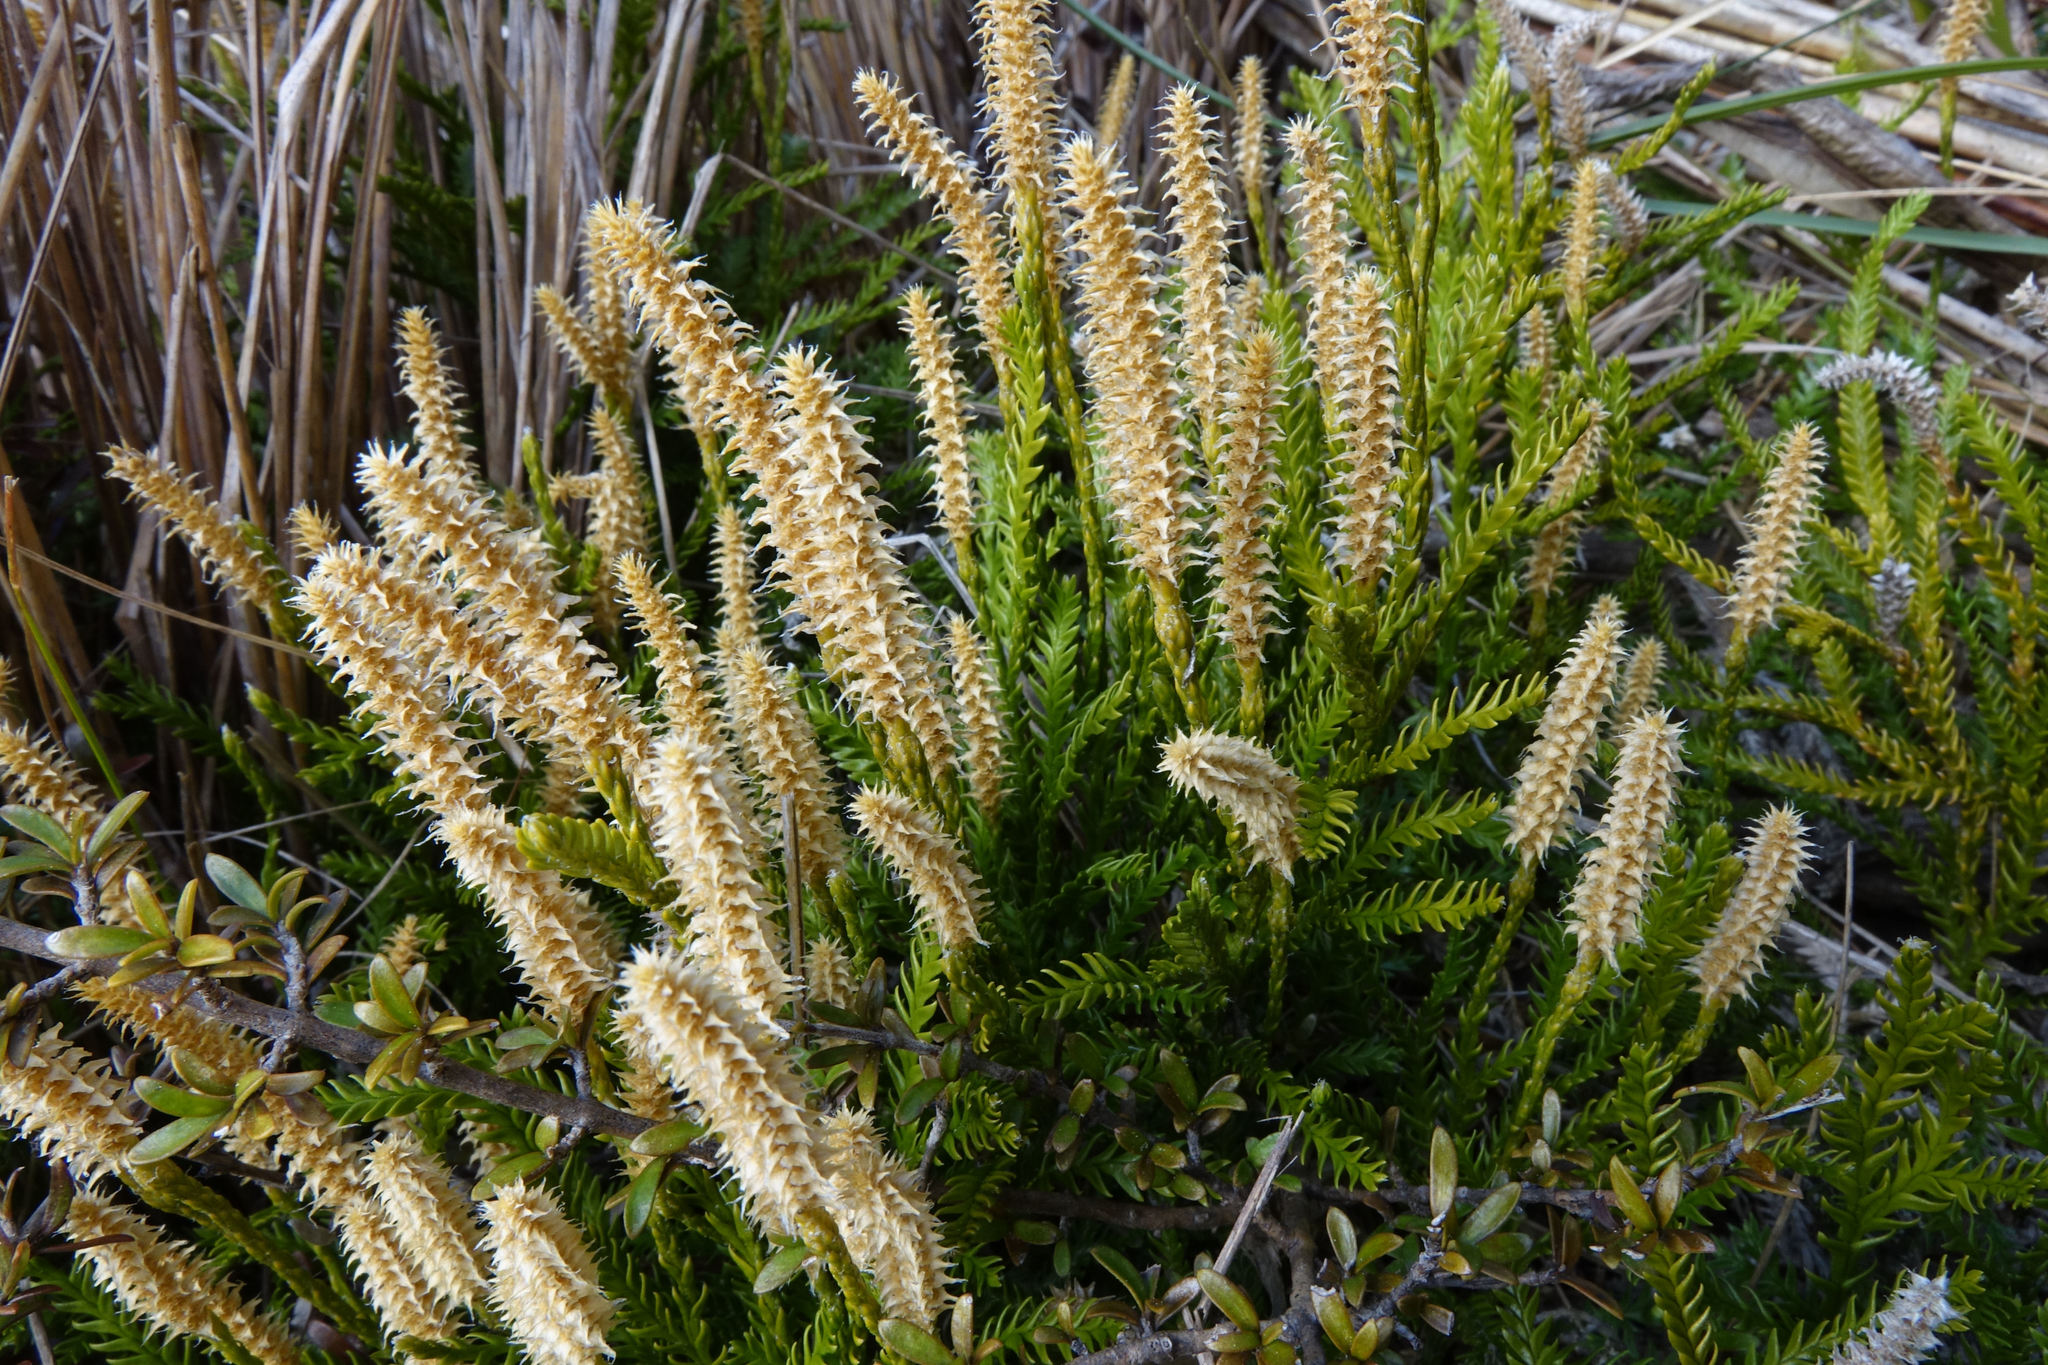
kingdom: Plantae
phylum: Tracheophyta
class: Lycopodiopsida
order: Lycopodiales
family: Lycopodiaceae
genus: Diphasium
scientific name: Diphasium scariosum
